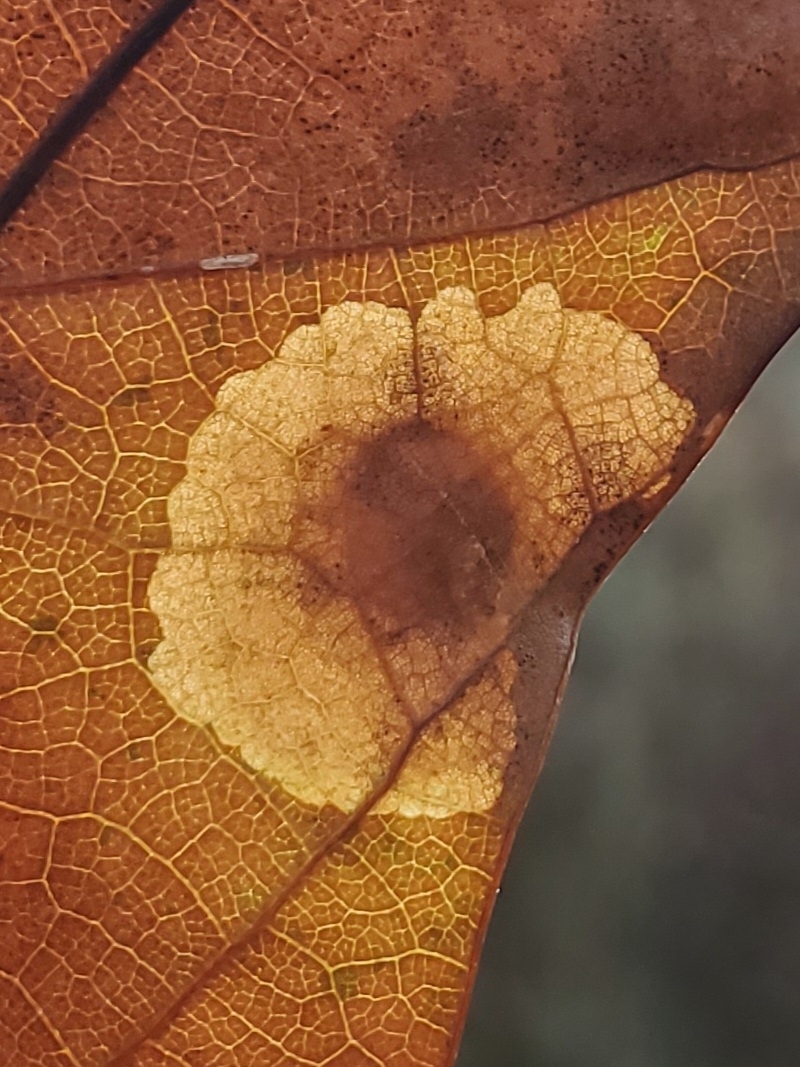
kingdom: Animalia
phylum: Arthropoda
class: Insecta
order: Lepidoptera
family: Tischeriidae
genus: Tischeria
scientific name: Tischeria quercitella
